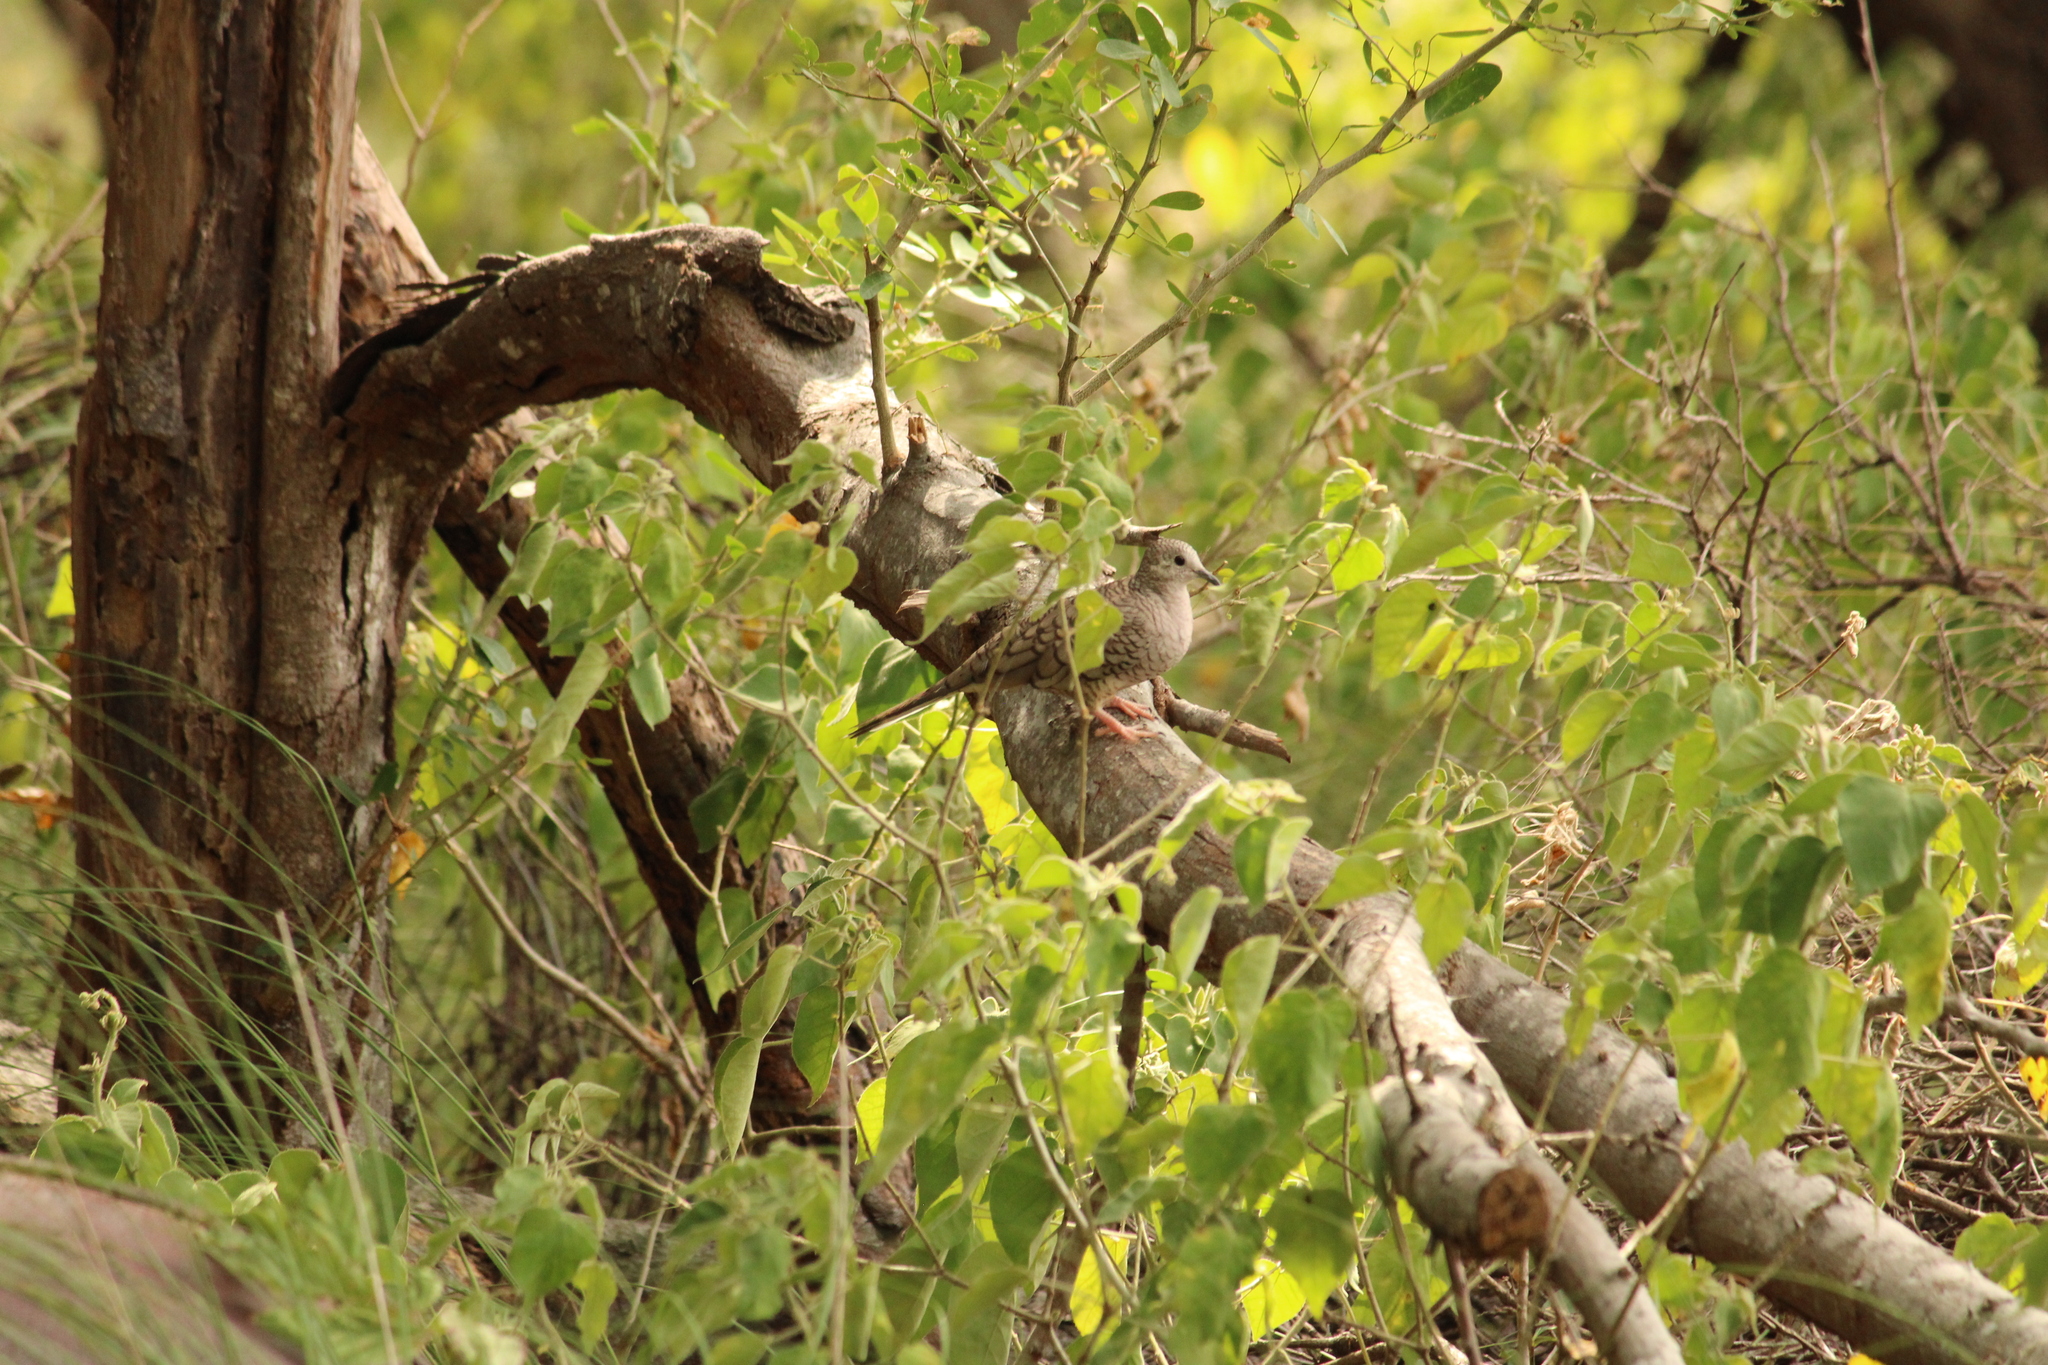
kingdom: Animalia
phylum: Chordata
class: Aves
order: Columbiformes
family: Columbidae
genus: Columbina
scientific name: Columbina inca
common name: Inca dove
